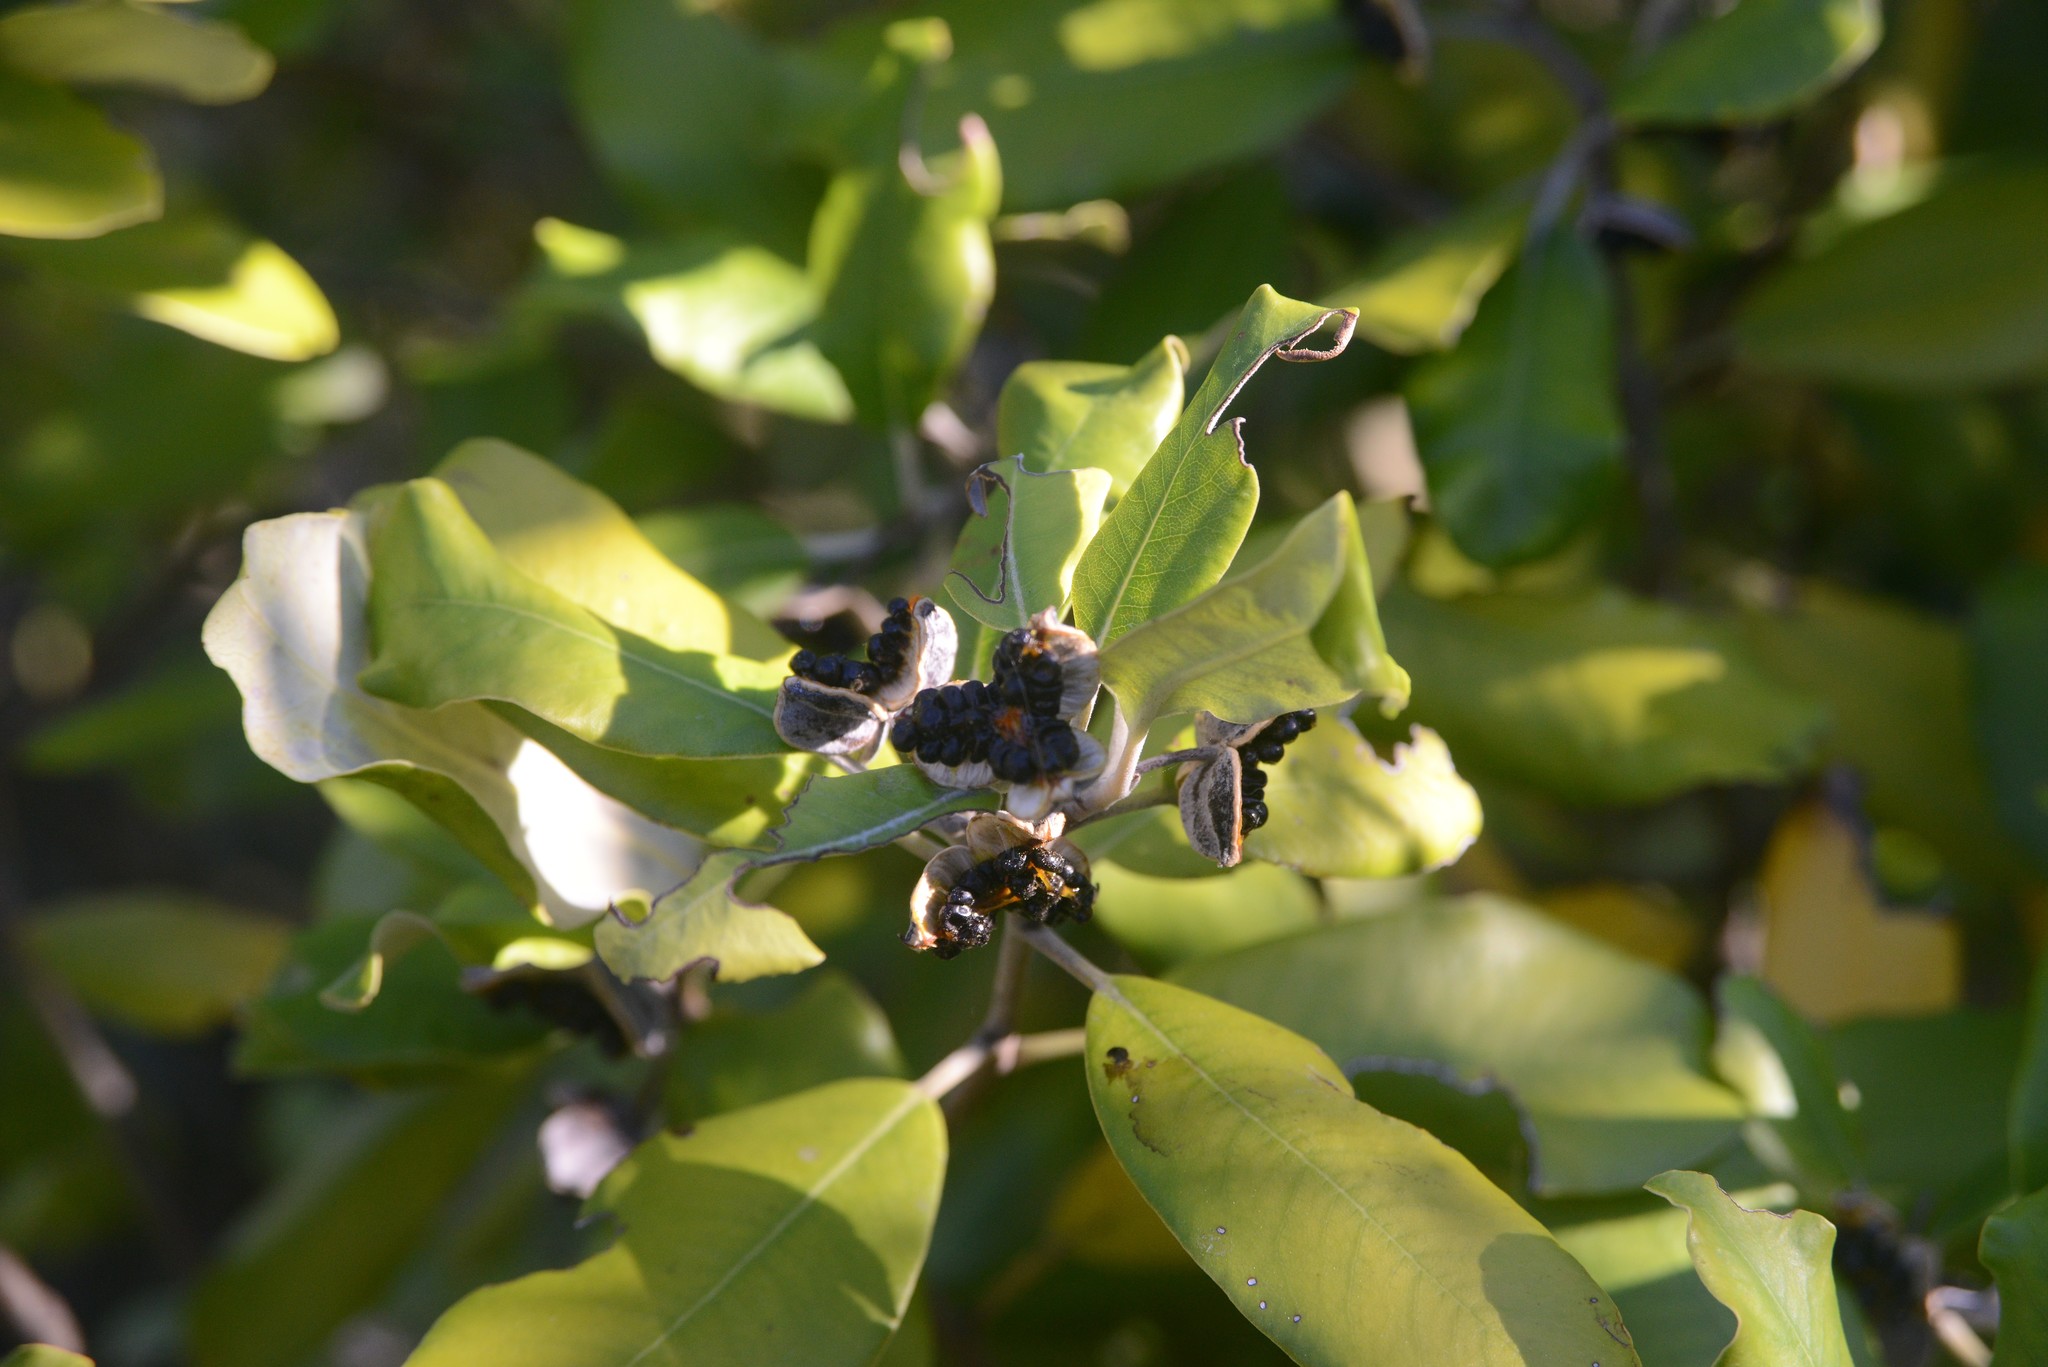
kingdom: Plantae
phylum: Tracheophyta
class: Magnoliopsida
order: Apiales
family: Pittosporaceae
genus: Pittosporum
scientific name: Pittosporum ralphii
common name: Ralph's desertwillow
